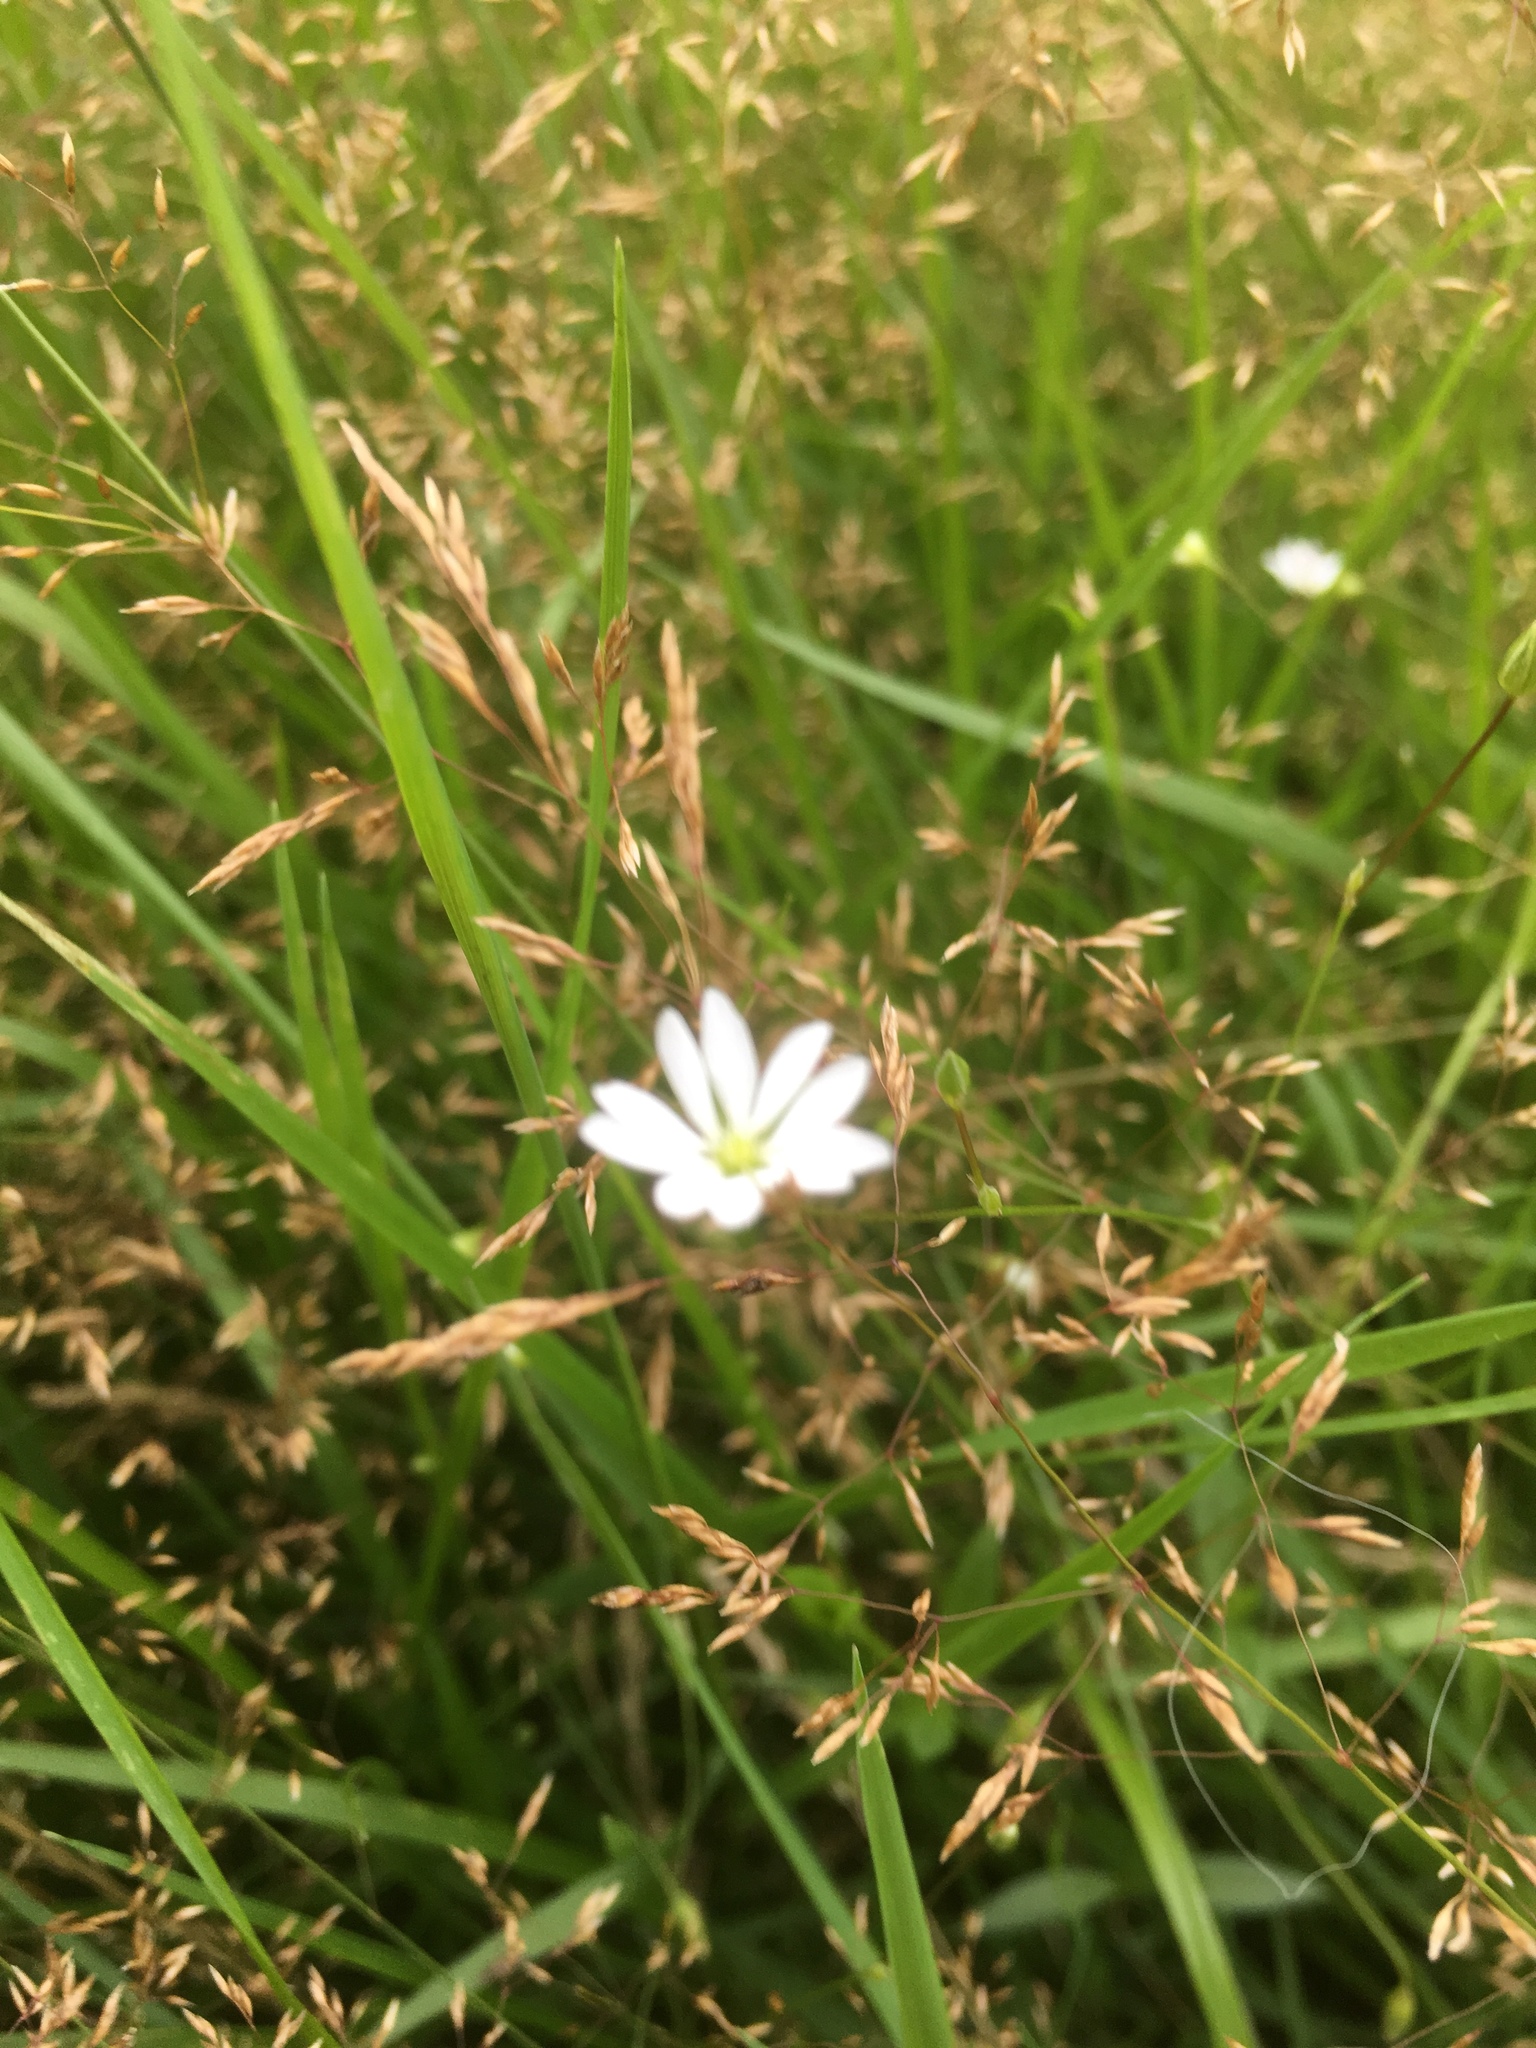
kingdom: Plantae
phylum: Tracheophyta
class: Magnoliopsida
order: Caryophyllales
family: Caryophyllaceae
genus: Stellaria
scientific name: Stellaria graminea
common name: Grass-like starwort
